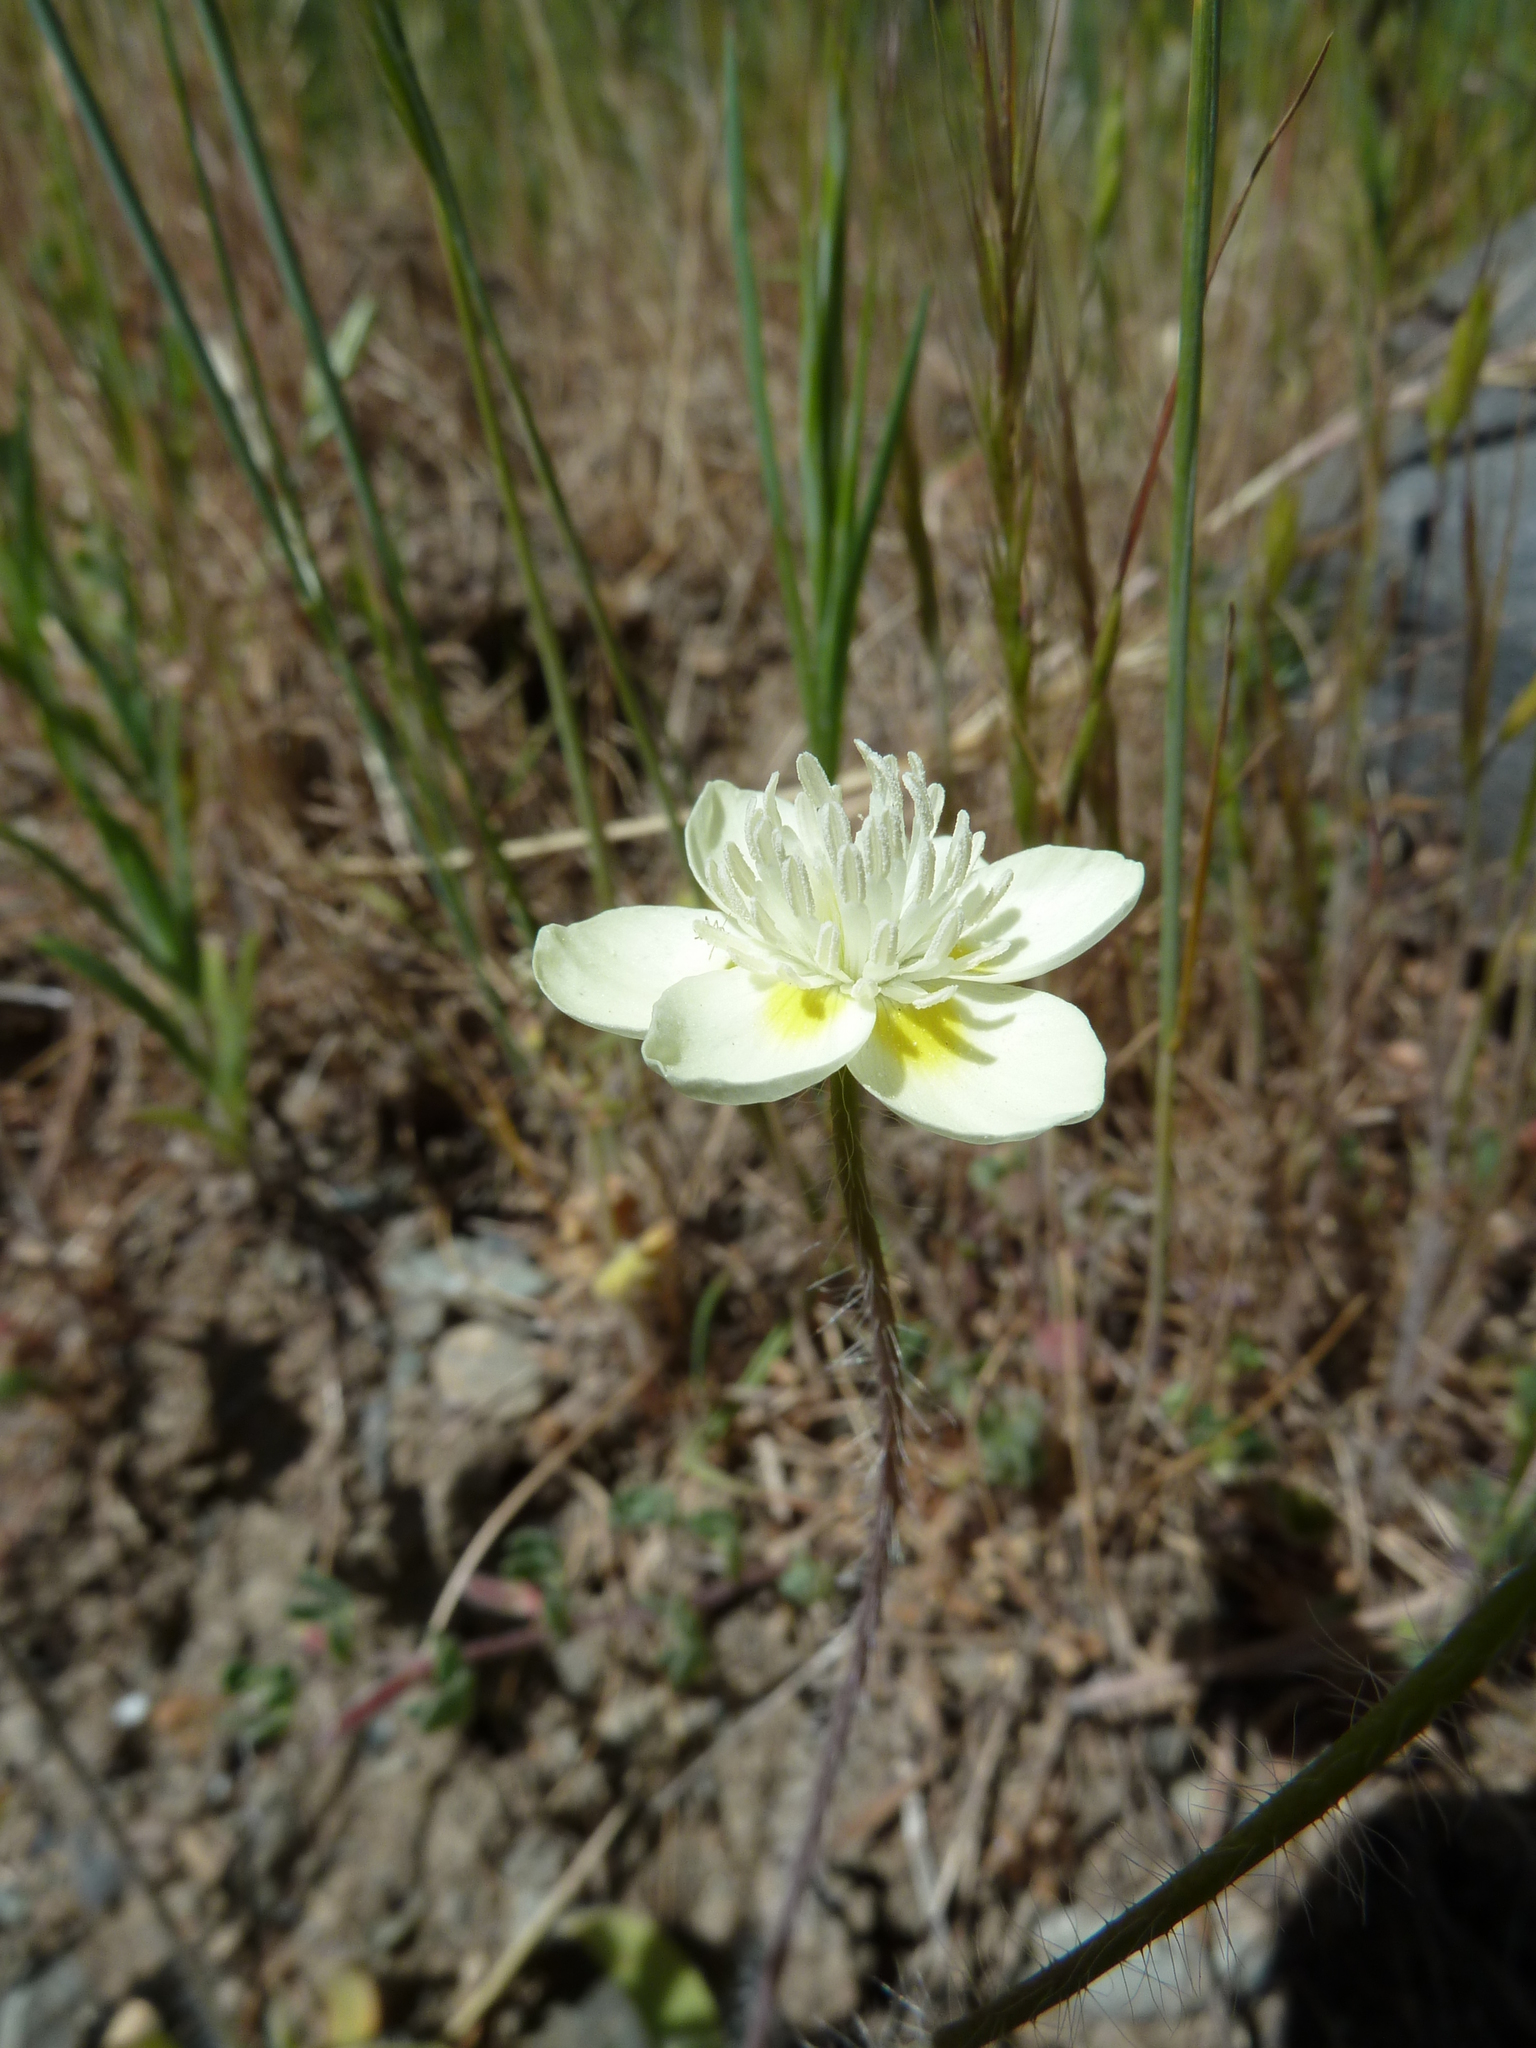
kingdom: Plantae
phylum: Tracheophyta
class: Magnoliopsida
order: Ranunculales
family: Papaveraceae
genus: Platystemon
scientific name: Platystemon californicus
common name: Cream-cups
